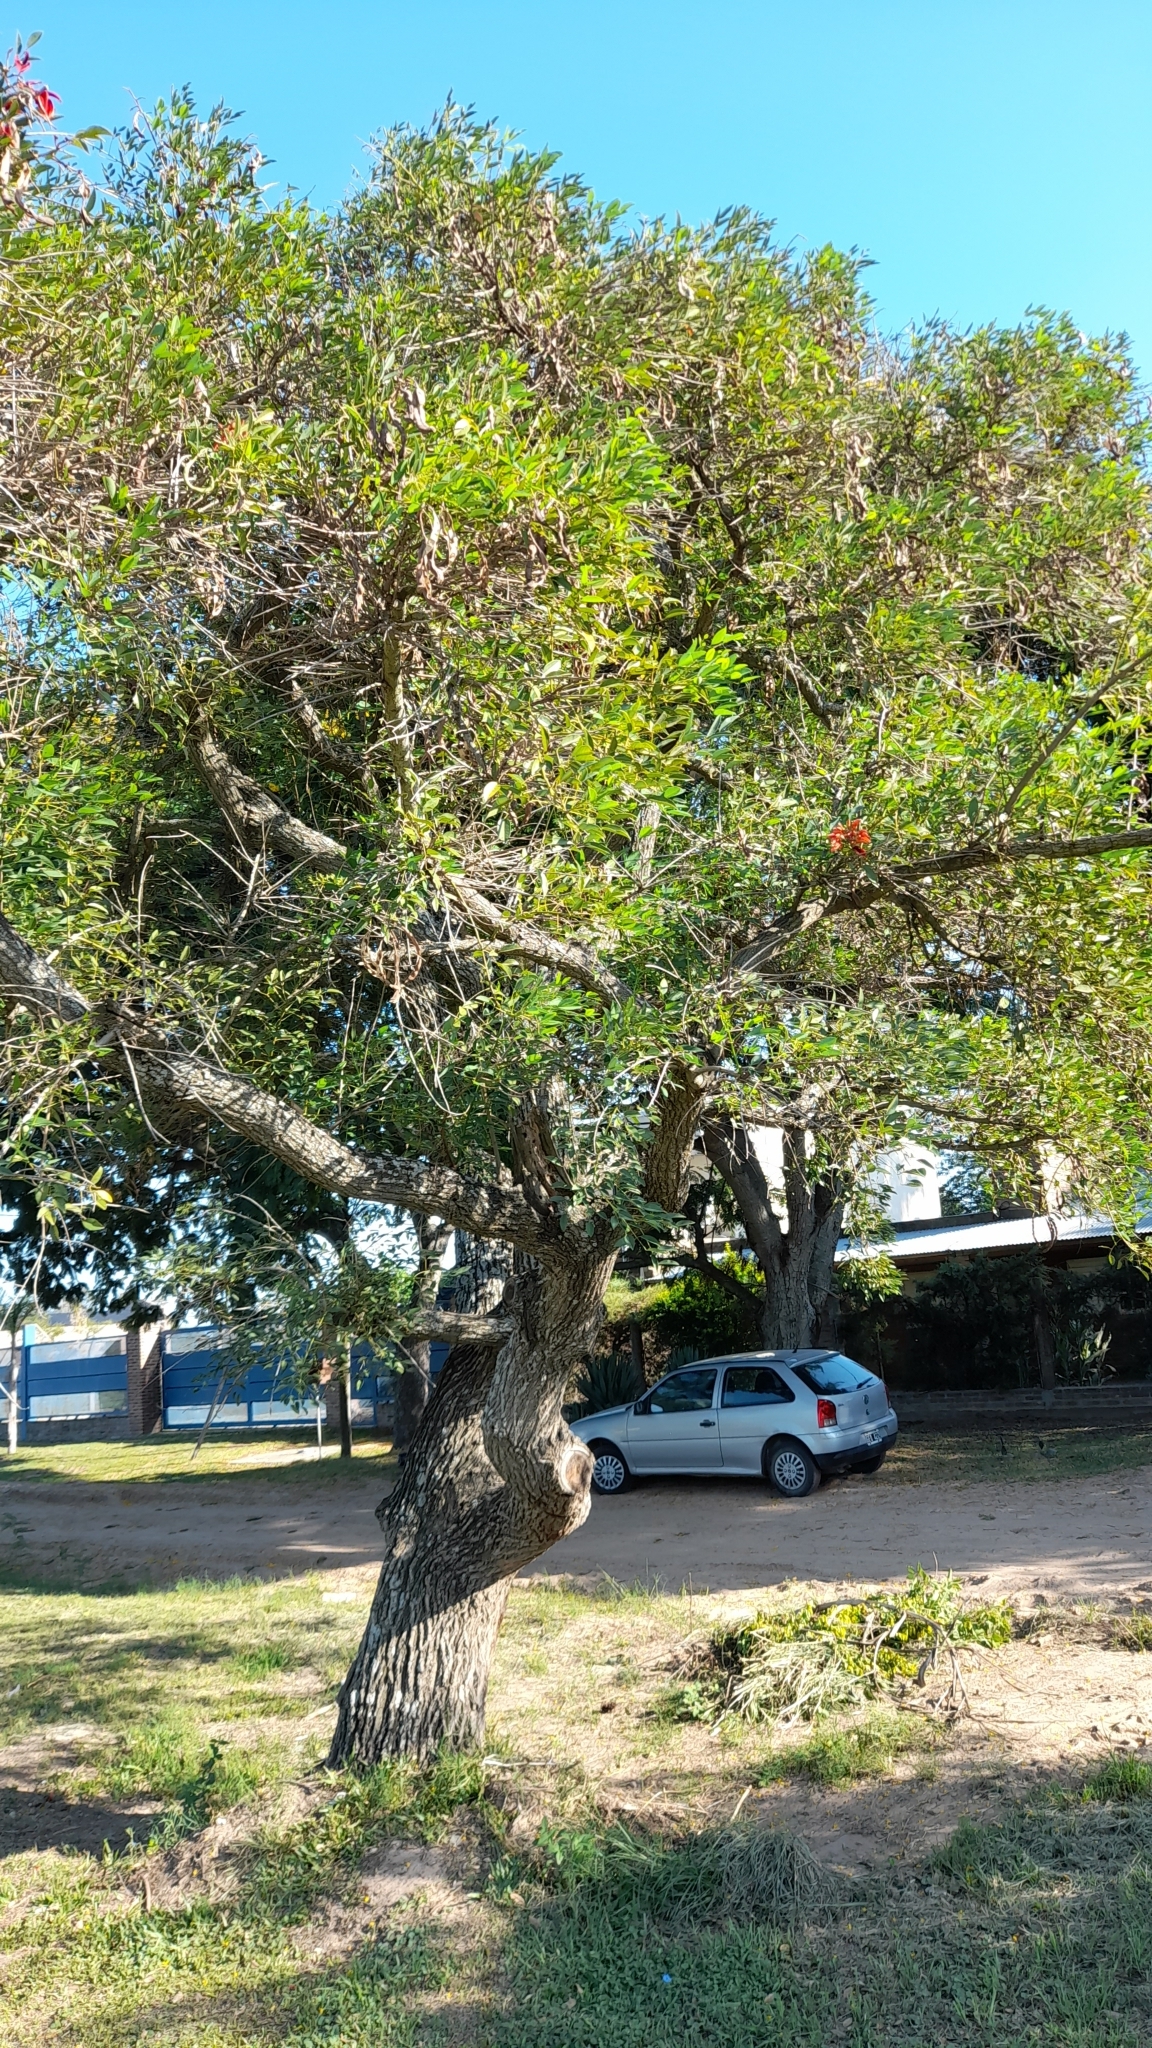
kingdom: Plantae
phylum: Tracheophyta
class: Magnoliopsida
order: Fabales
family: Fabaceae
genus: Erythrina
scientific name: Erythrina crista-galli
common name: Cockspur coral tree
